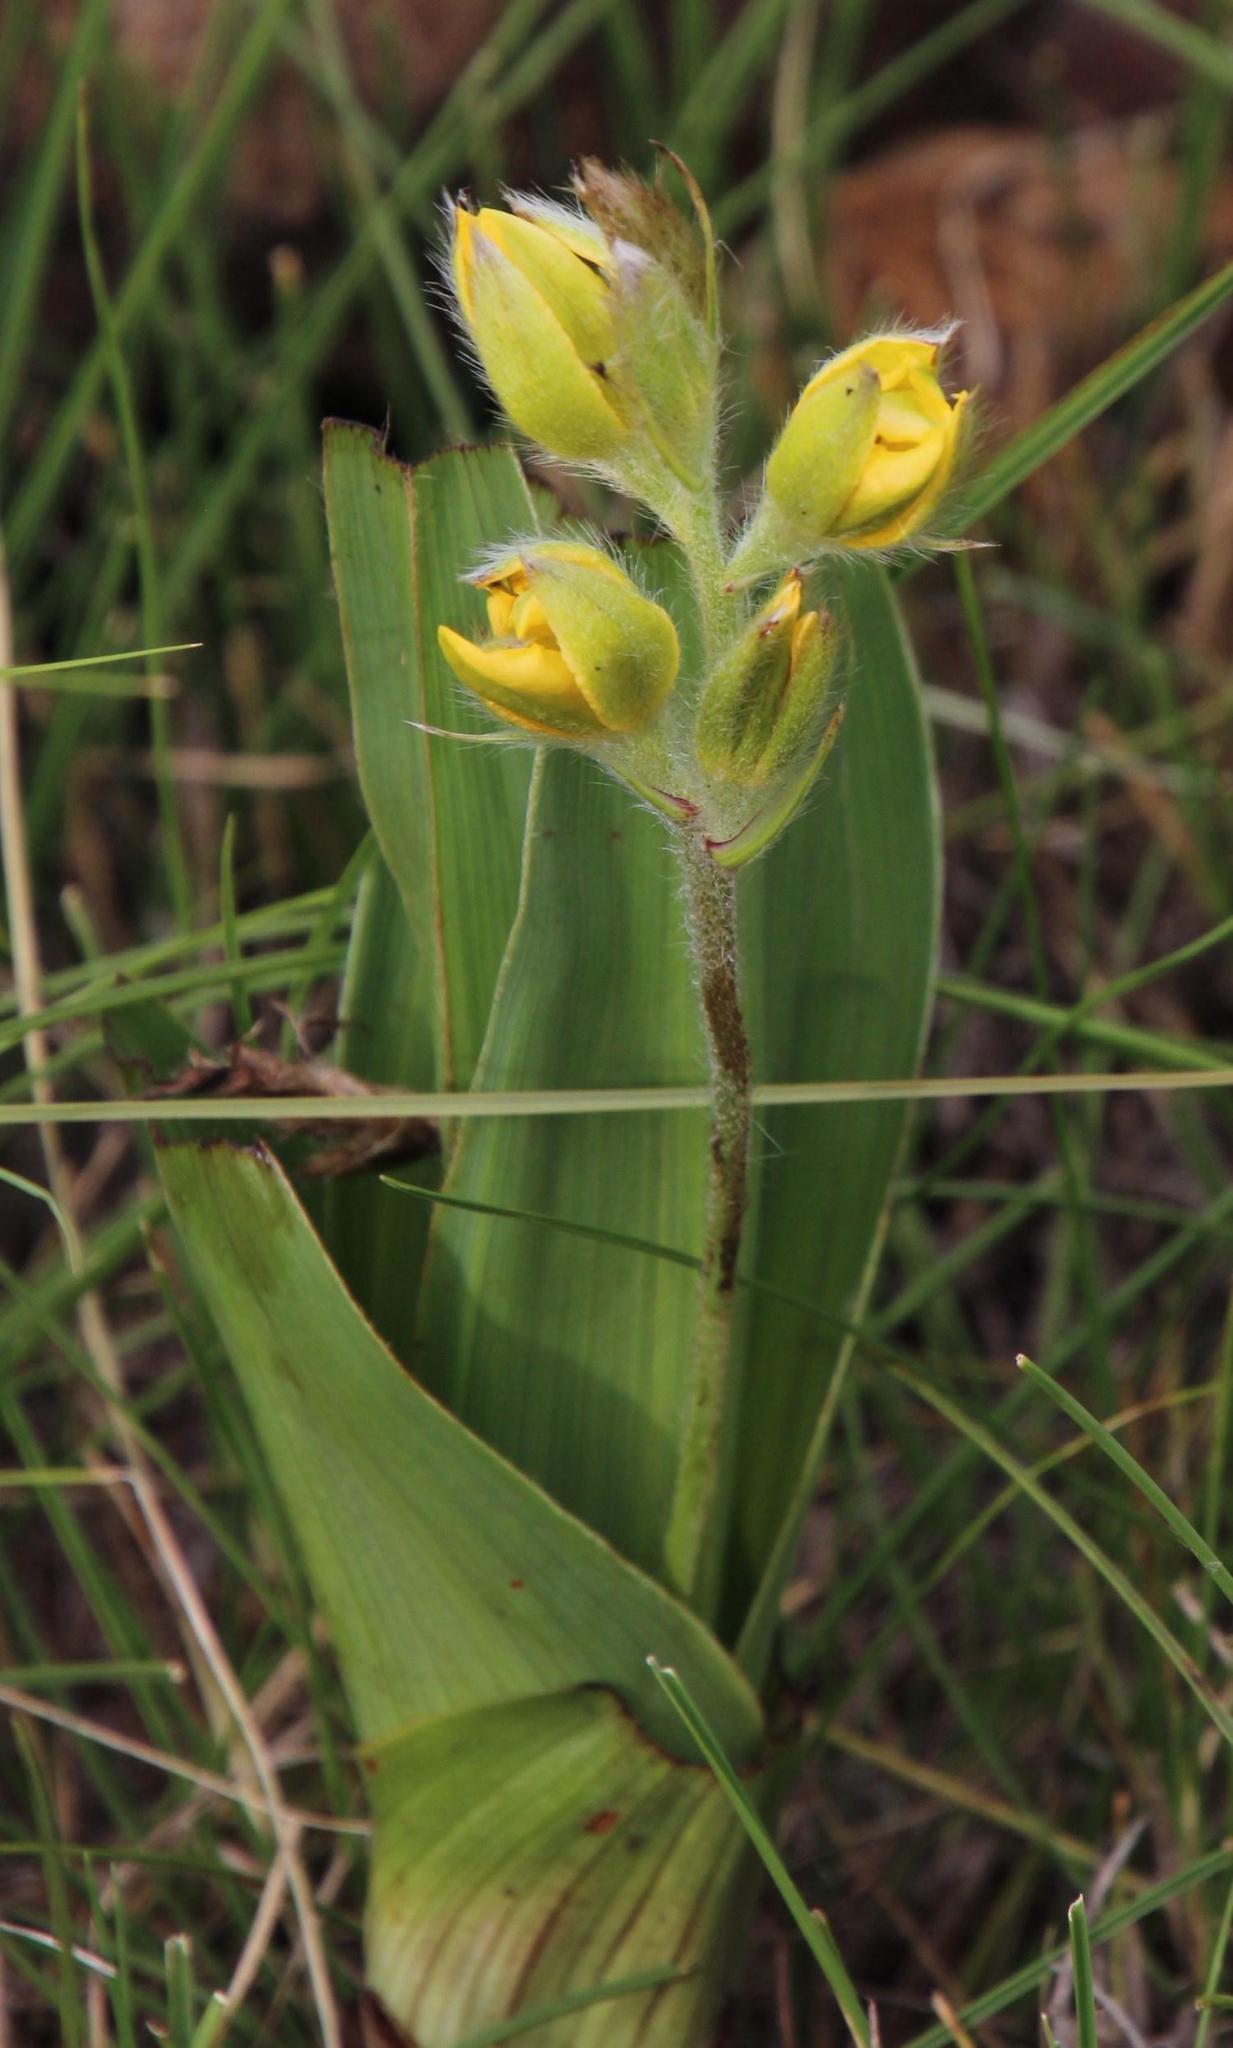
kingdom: Plantae
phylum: Tracheophyta
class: Liliopsida
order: Asparagales
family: Hypoxidaceae
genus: Hypoxis
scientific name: Hypoxis galpinii
